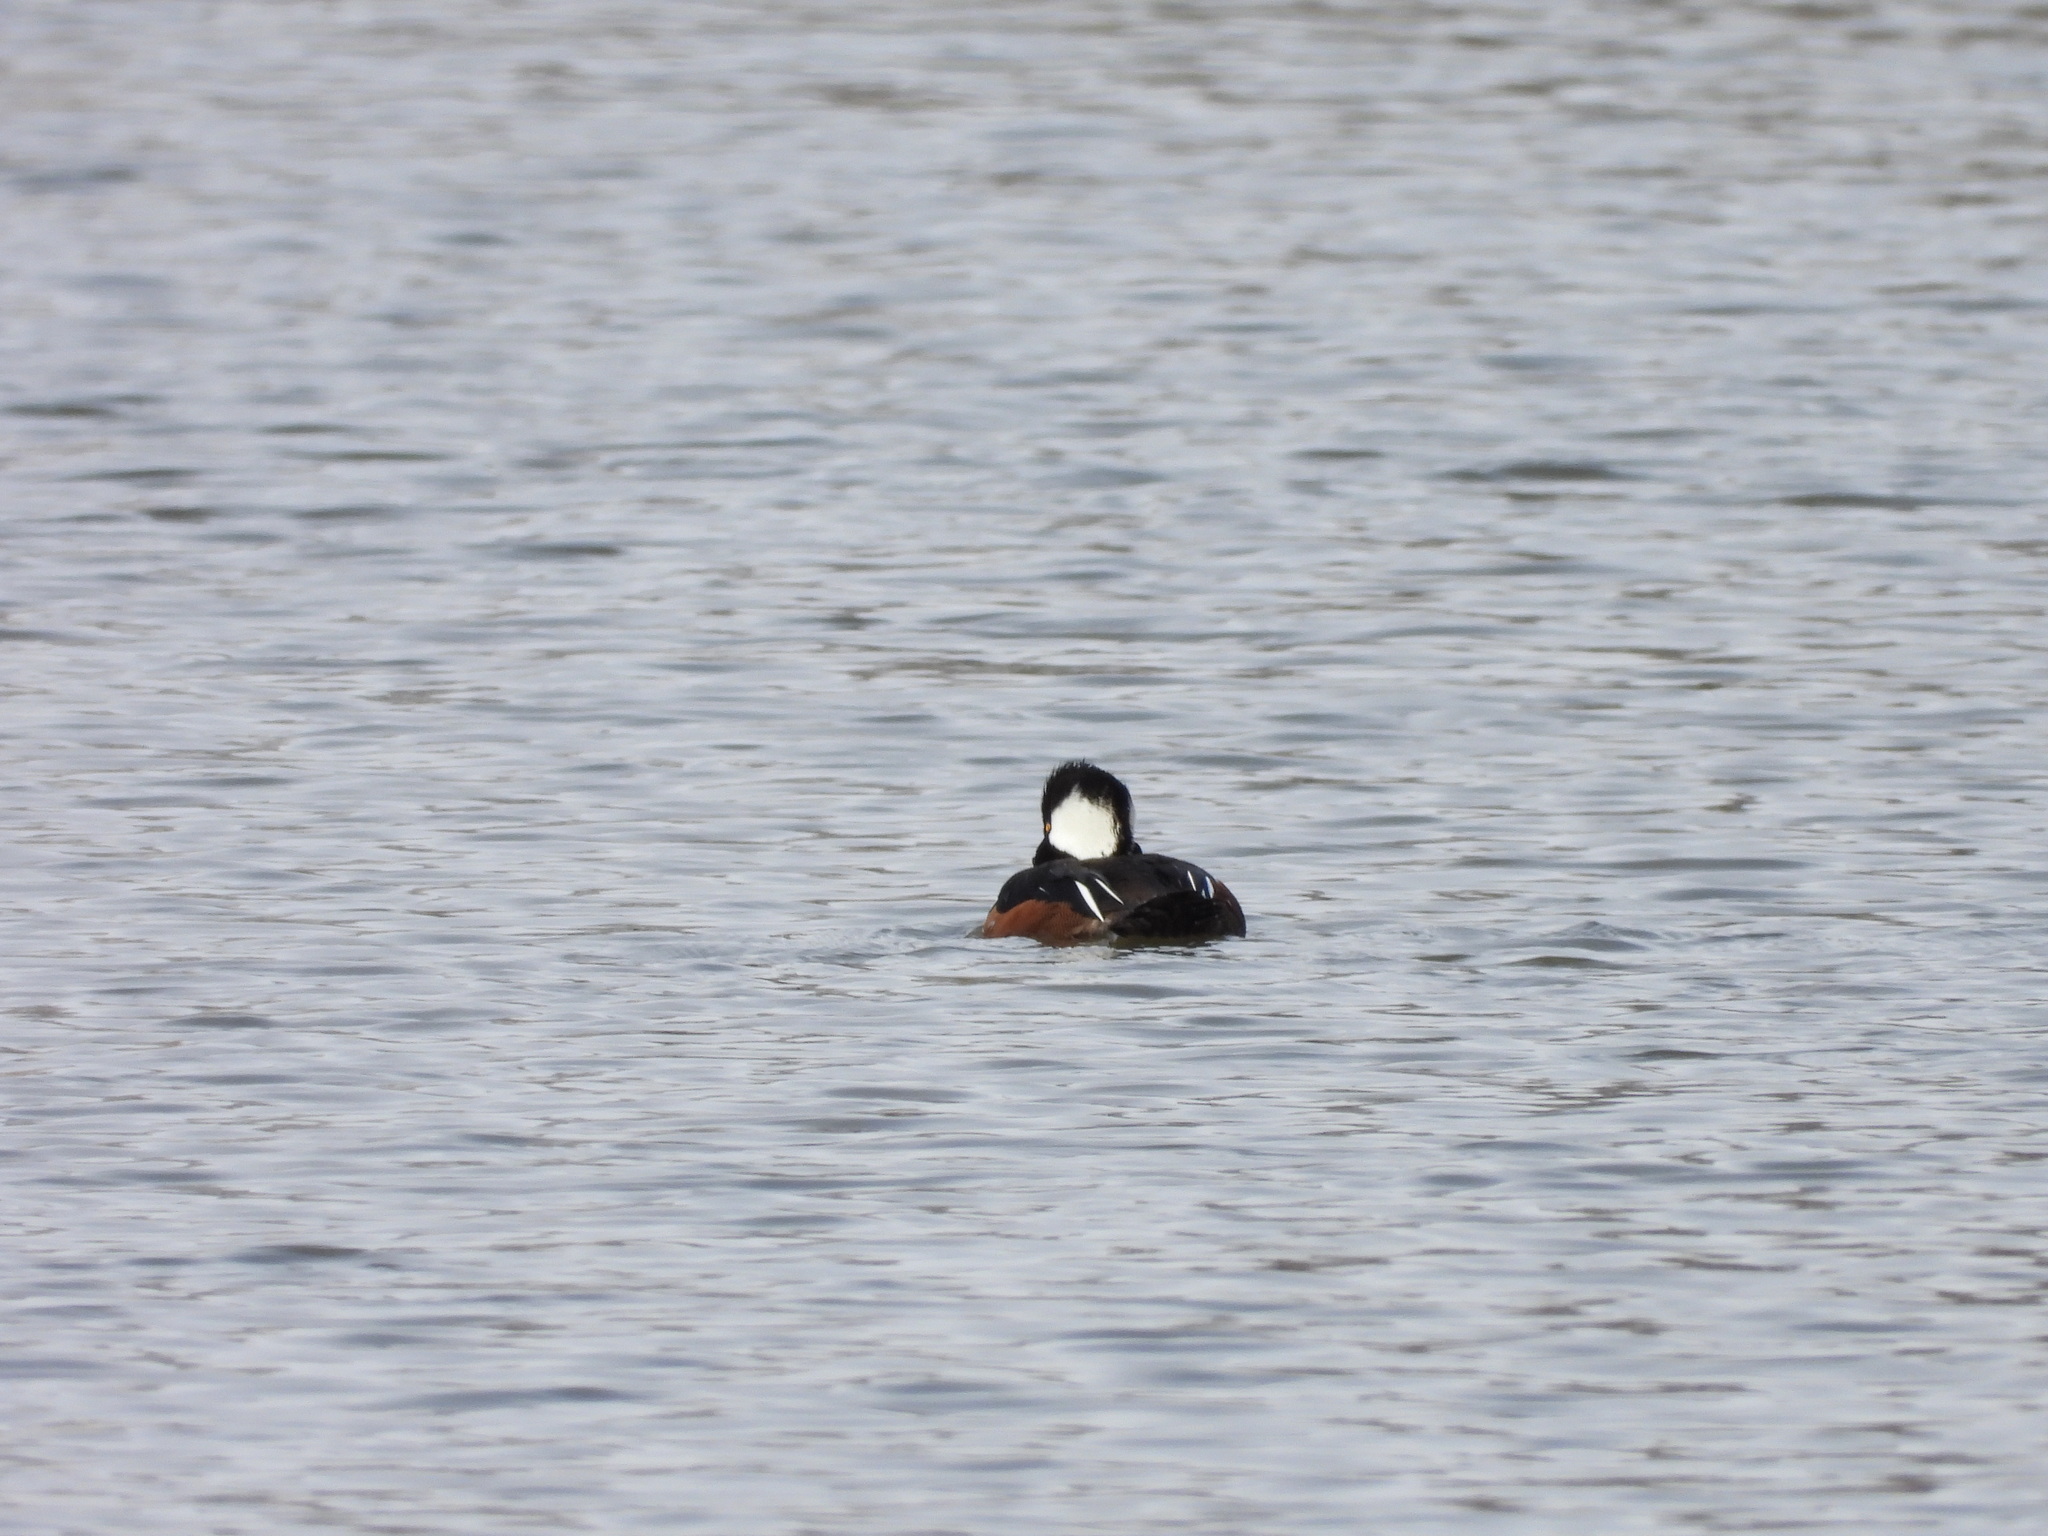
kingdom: Animalia
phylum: Chordata
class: Aves
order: Anseriformes
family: Anatidae
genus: Lophodytes
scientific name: Lophodytes cucullatus
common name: Hooded merganser
